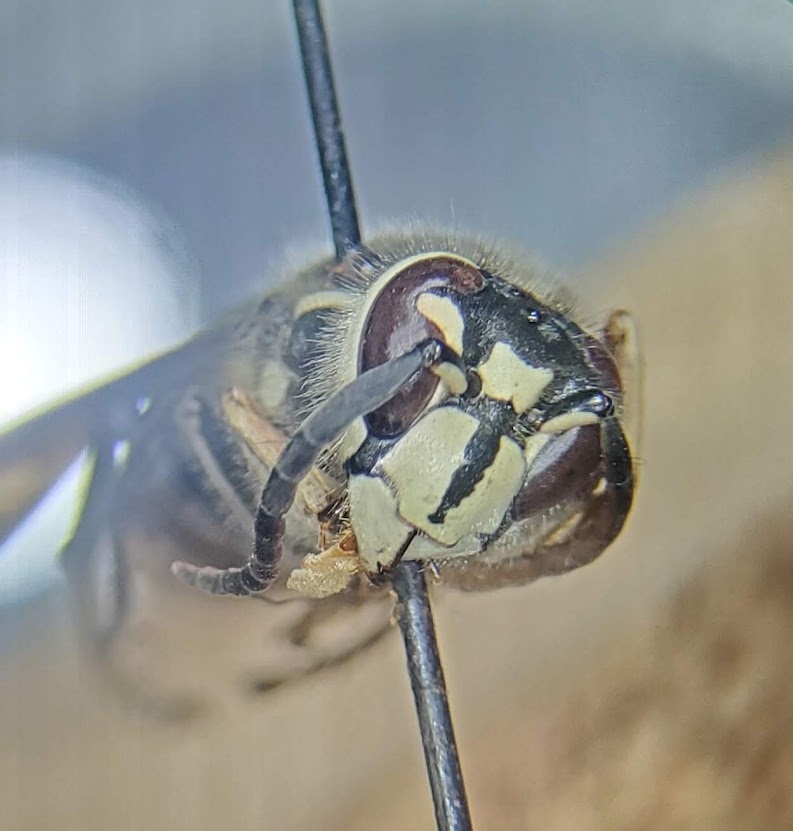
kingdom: Animalia
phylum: Arthropoda
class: Insecta
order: Hymenoptera
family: Vespidae
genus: Dolichovespula
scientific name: Dolichovespula maculata
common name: Bald-faced hornet
